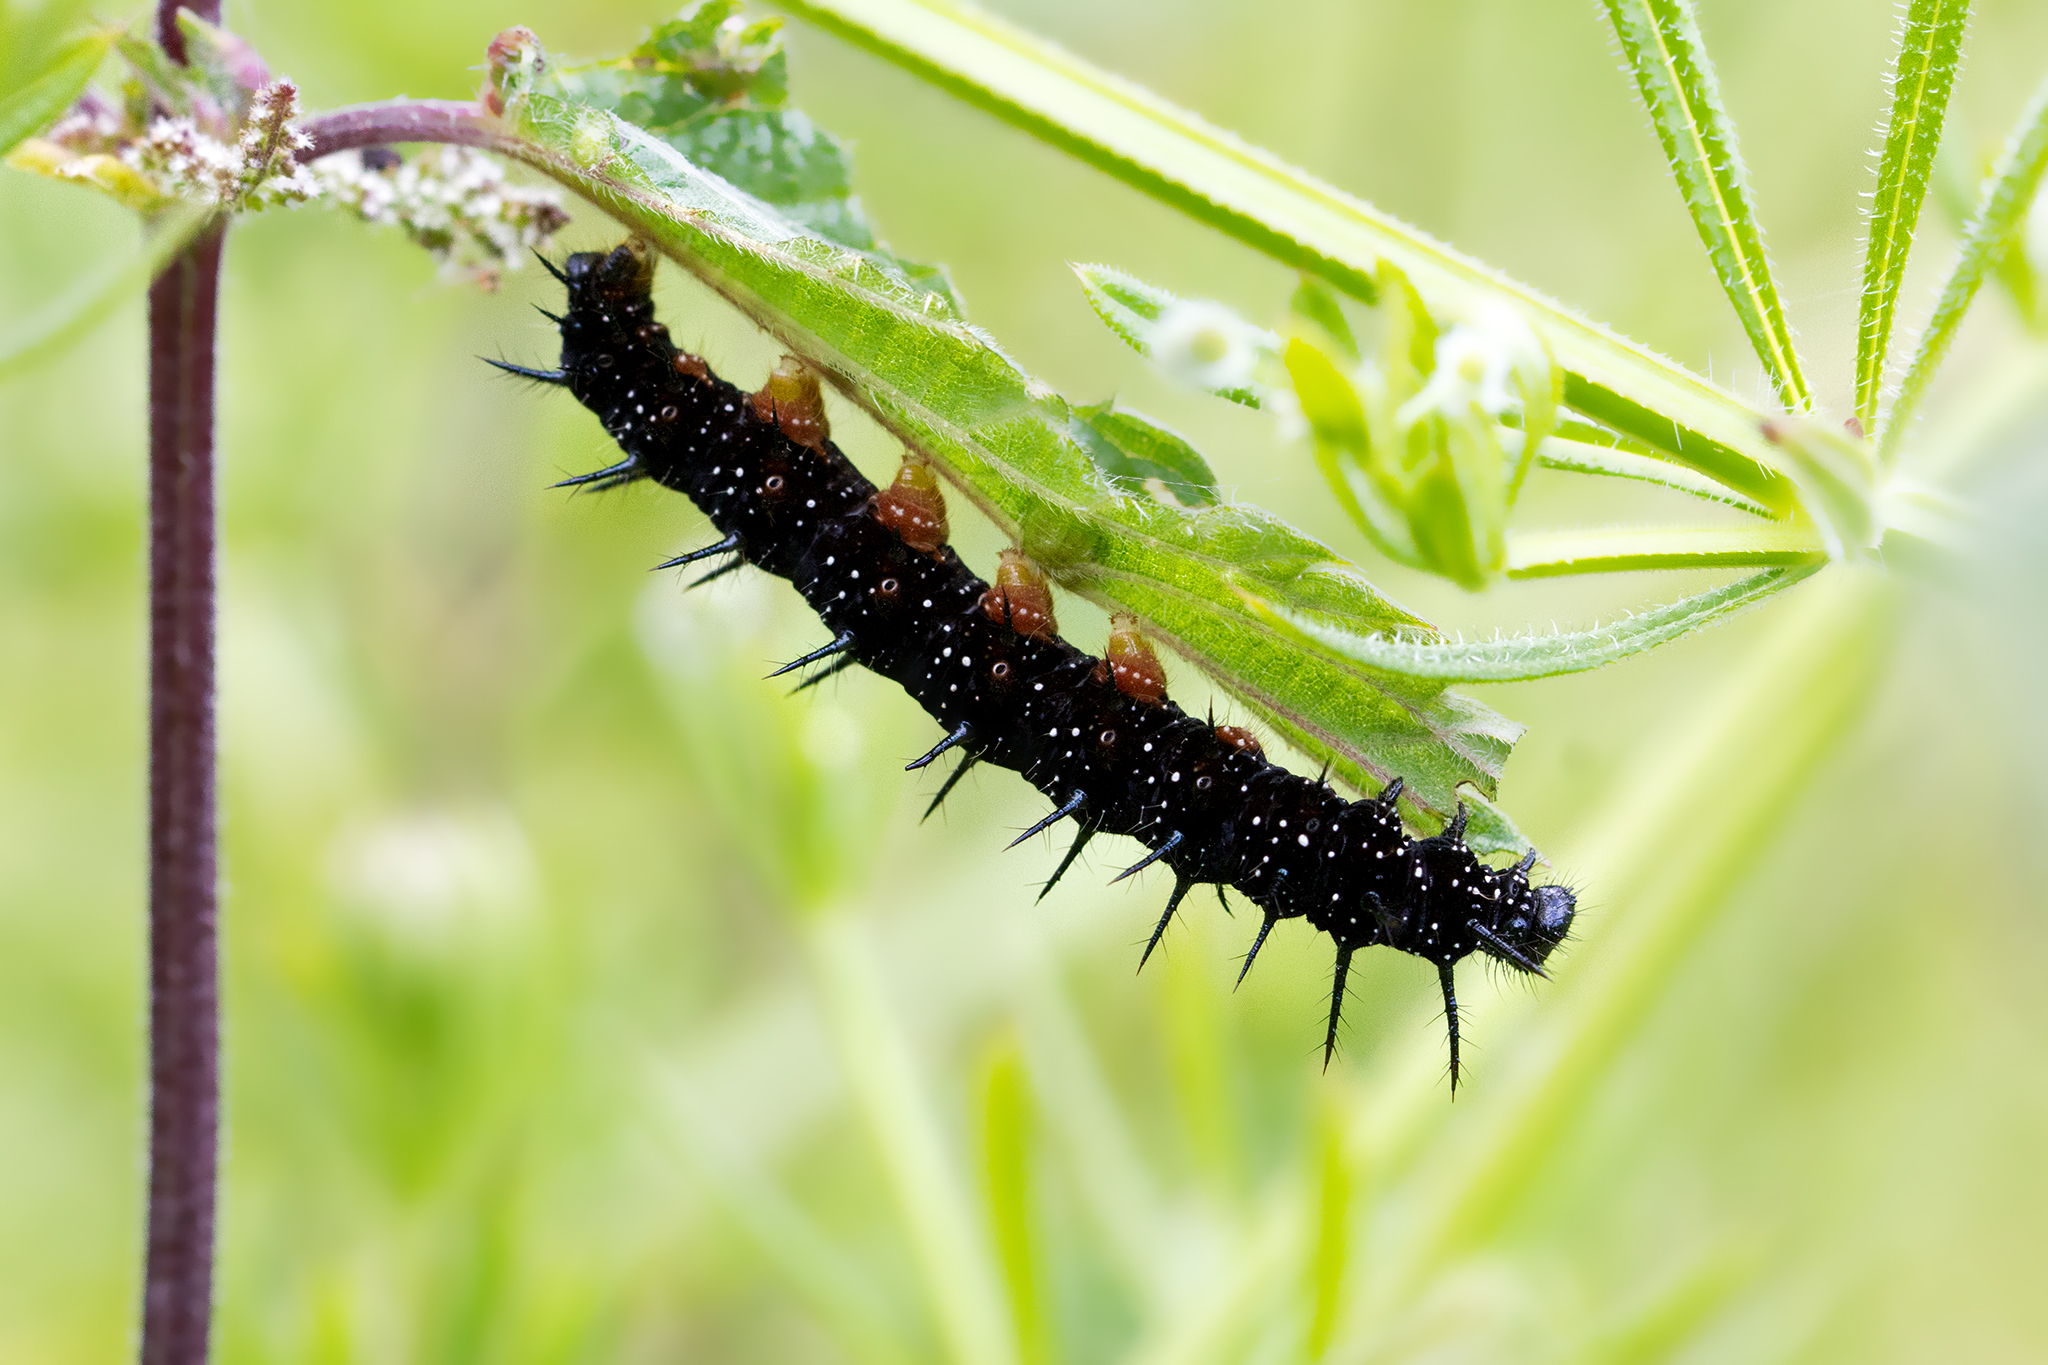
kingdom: Animalia
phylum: Arthropoda
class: Insecta
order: Lepidoptera
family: Nymphalidae
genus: Aglais
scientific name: Aglais io
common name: Peacock
